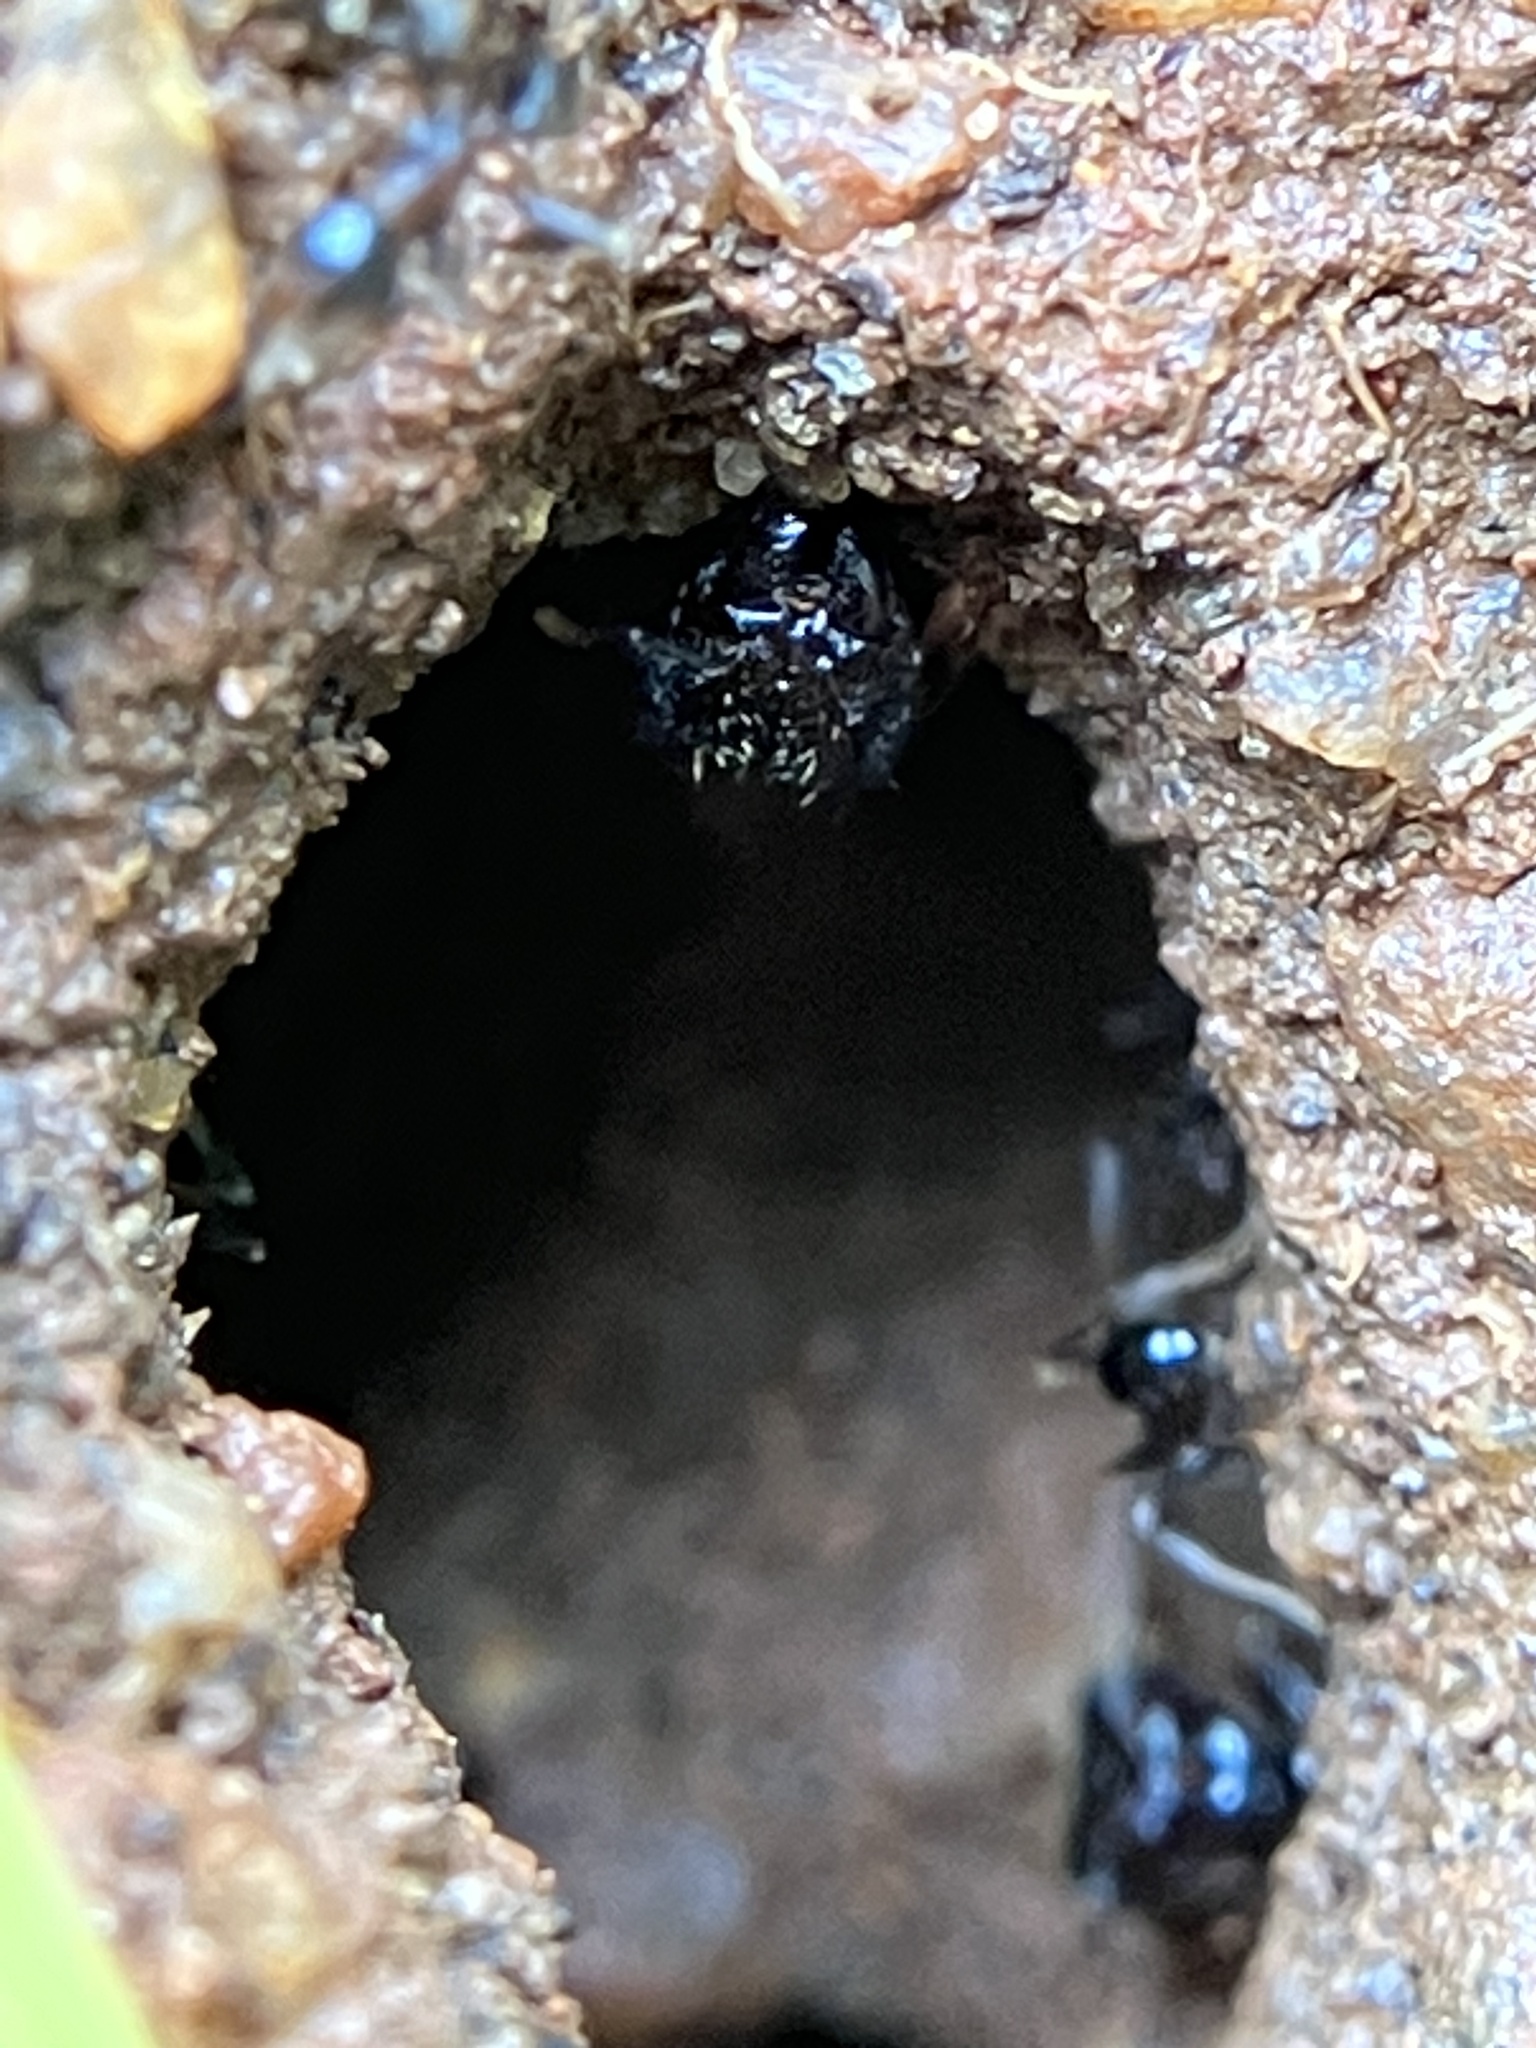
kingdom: Animalia
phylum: Arthropoda
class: Insecta
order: Hymenoptera
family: Formicidae
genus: Pheidole
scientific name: Pheidole noda
